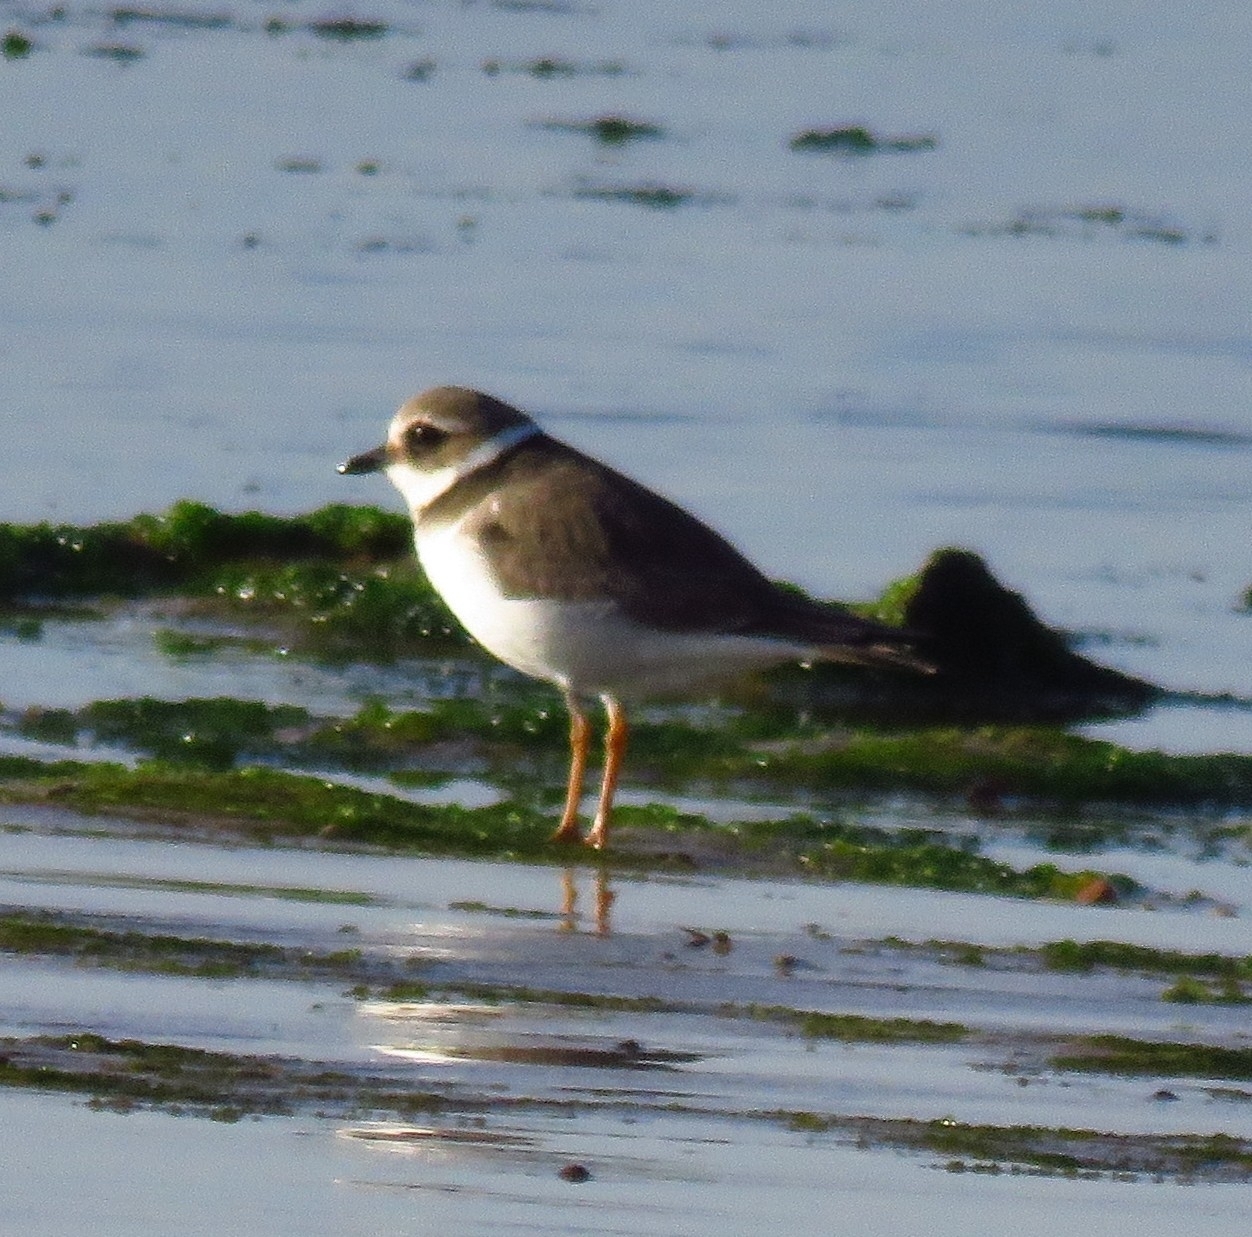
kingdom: Animalia
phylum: Chordata
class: Aves
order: Charadriiformes
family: Charadriidae
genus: Charadrius
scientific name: Charadrius hiaticula
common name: Common ringed plover
